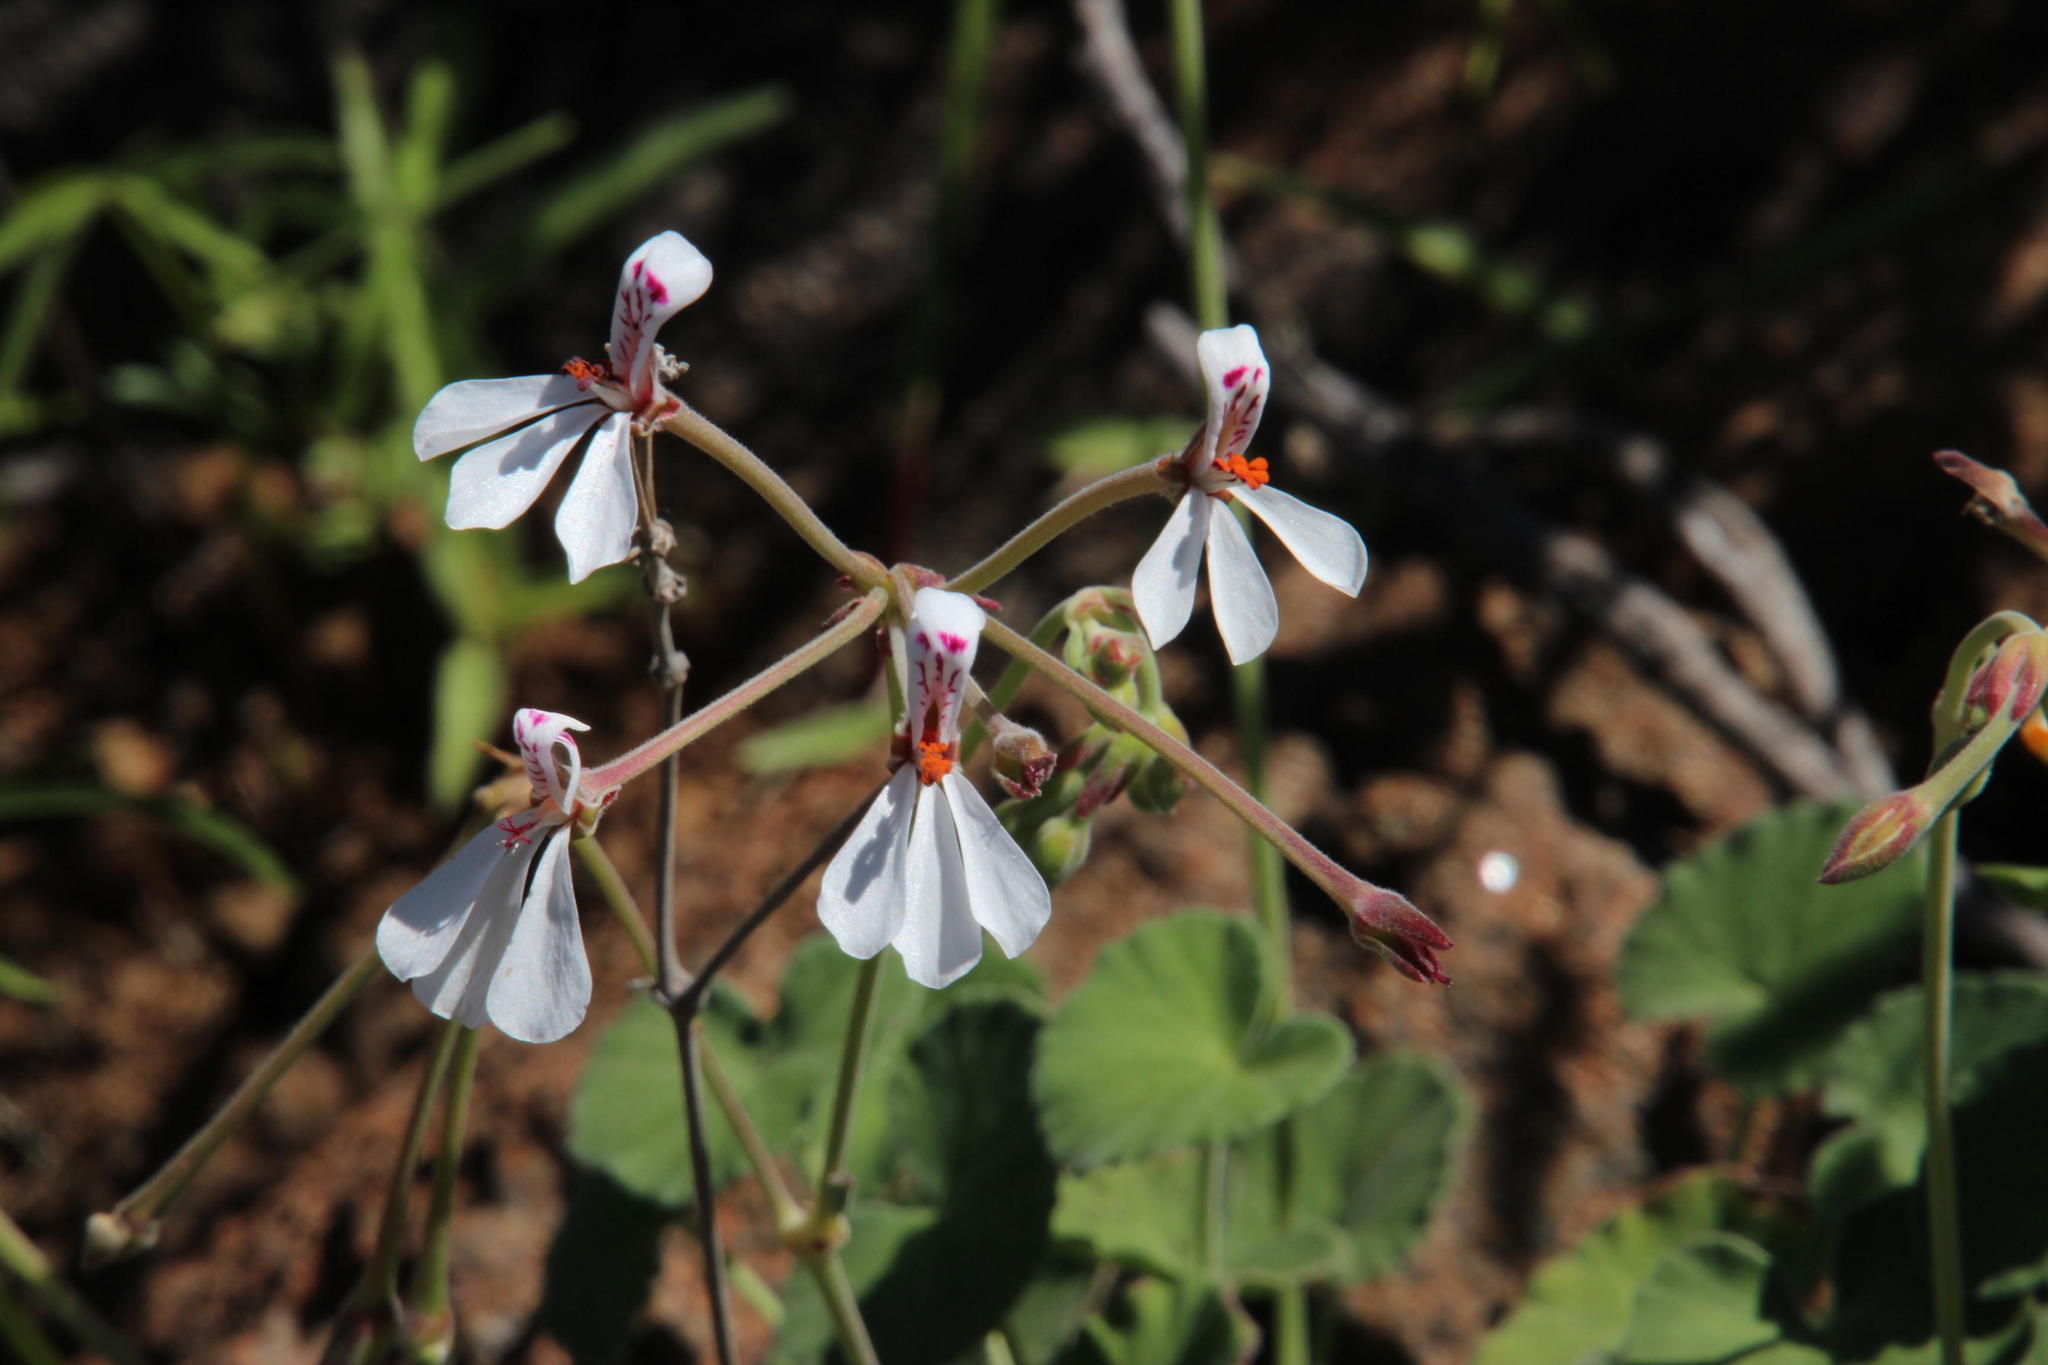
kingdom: Plantae
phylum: Tracheophyta
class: Magnoliopsida
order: Geraniales
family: Geraniaceae
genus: Pelargonium
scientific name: Pelargonium dichondrifolium
